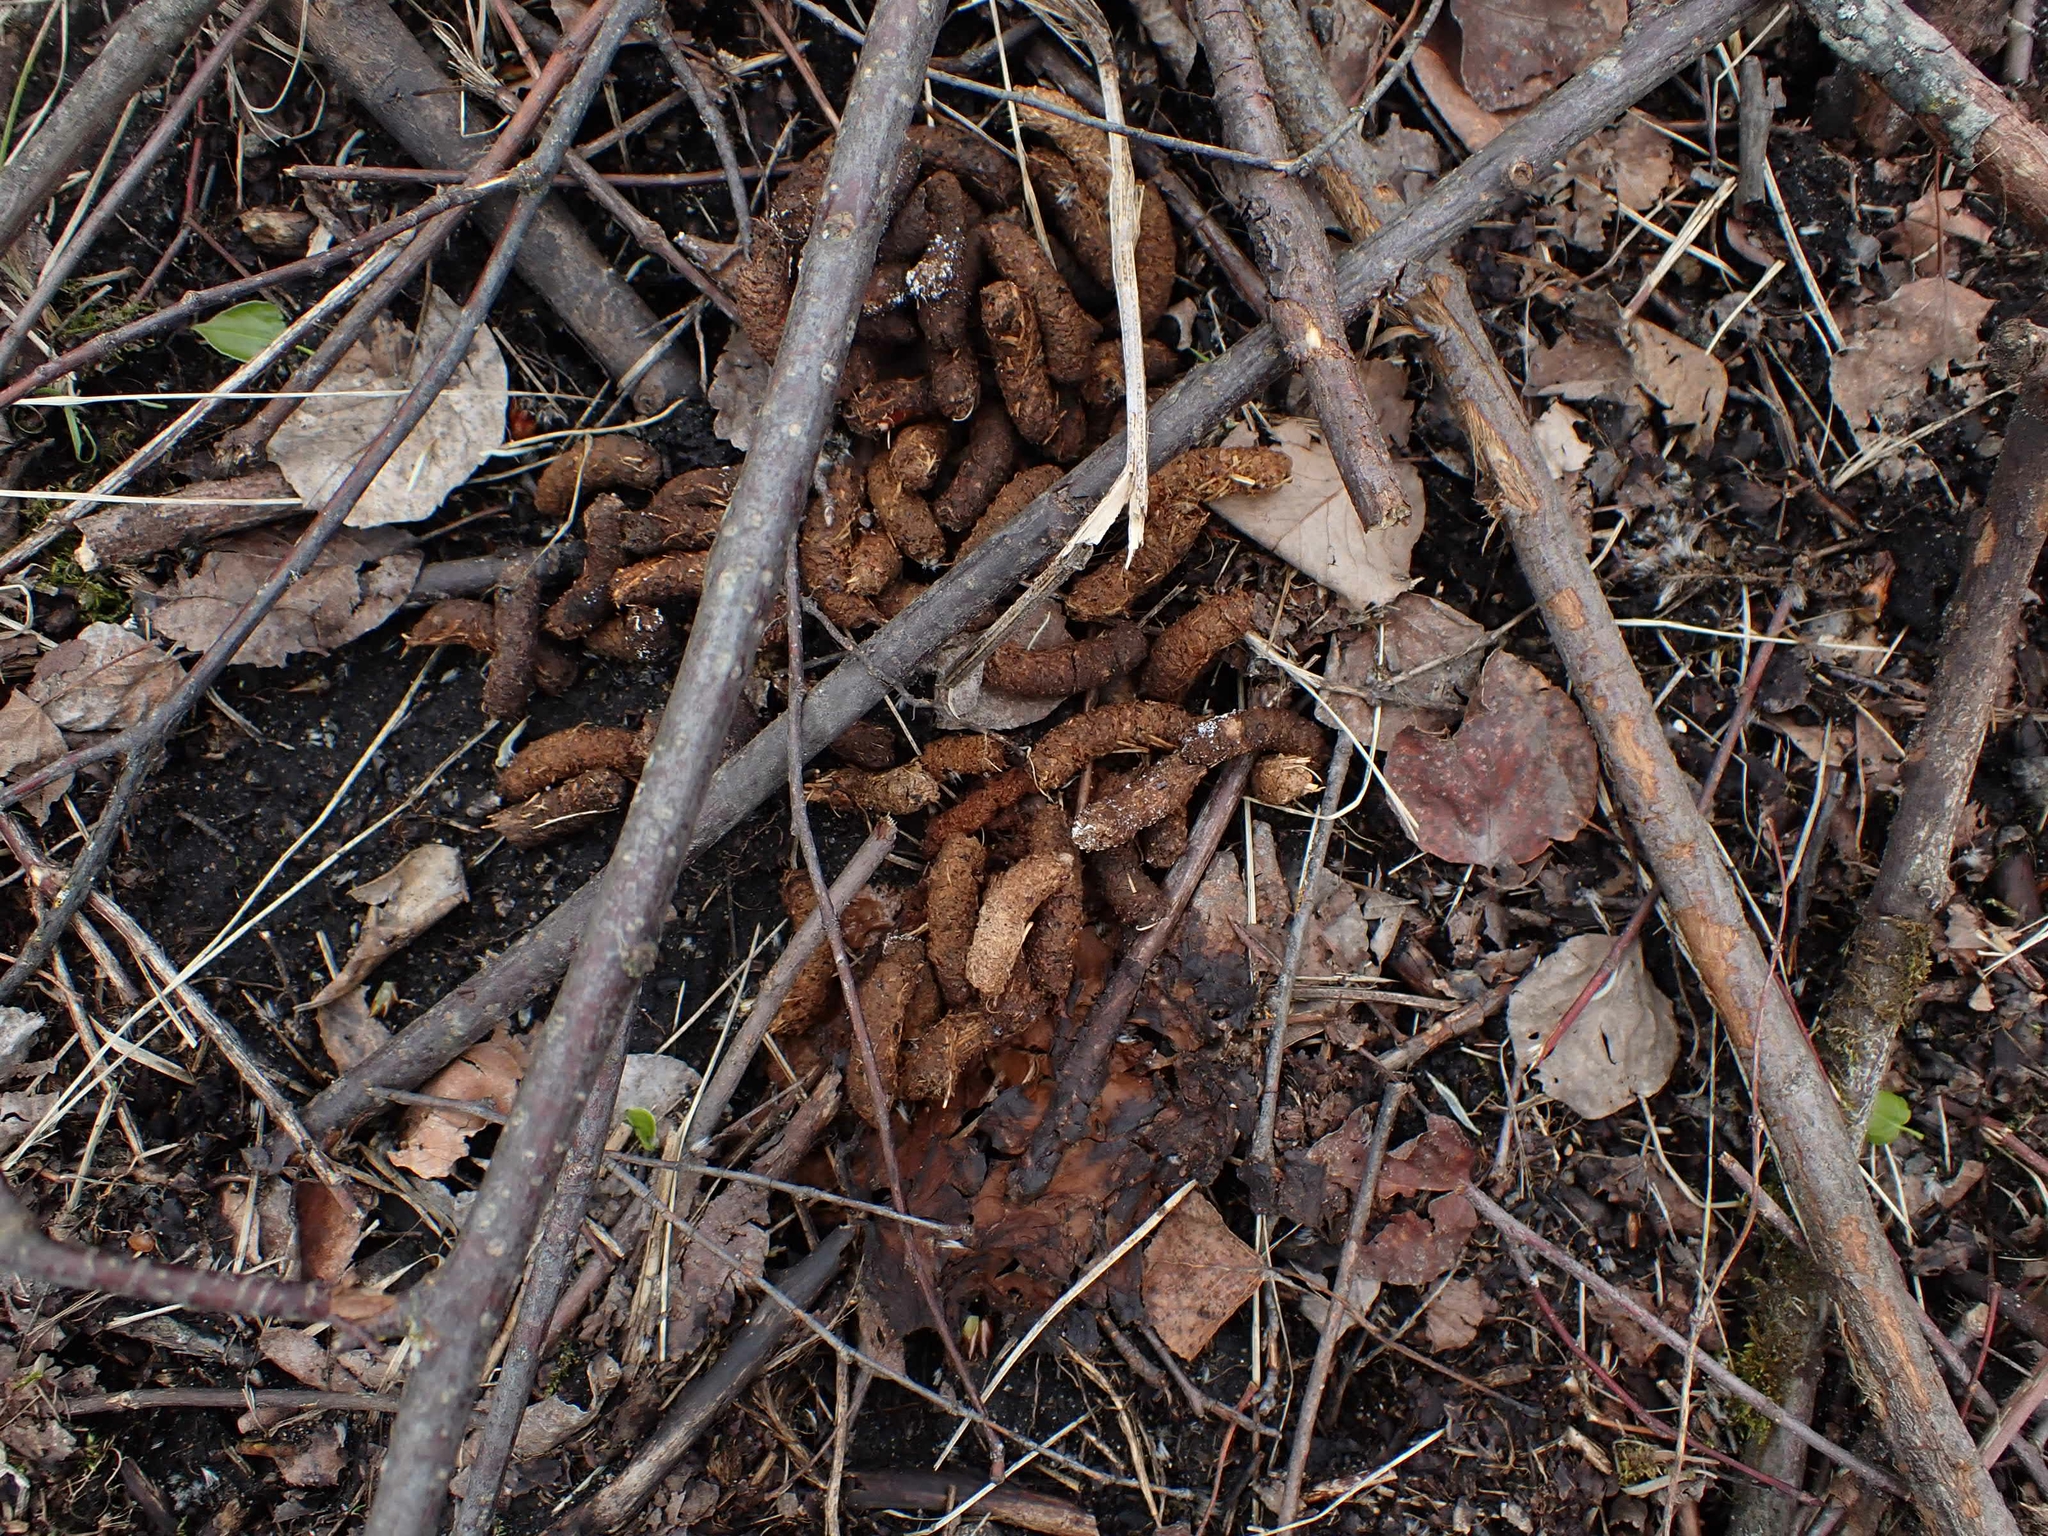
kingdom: Animalia
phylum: Chordata
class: Aves
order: Galliformes
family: Phasianidae
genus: Bonasa
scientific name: Bonasa umbellus
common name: Ruffed grouse
